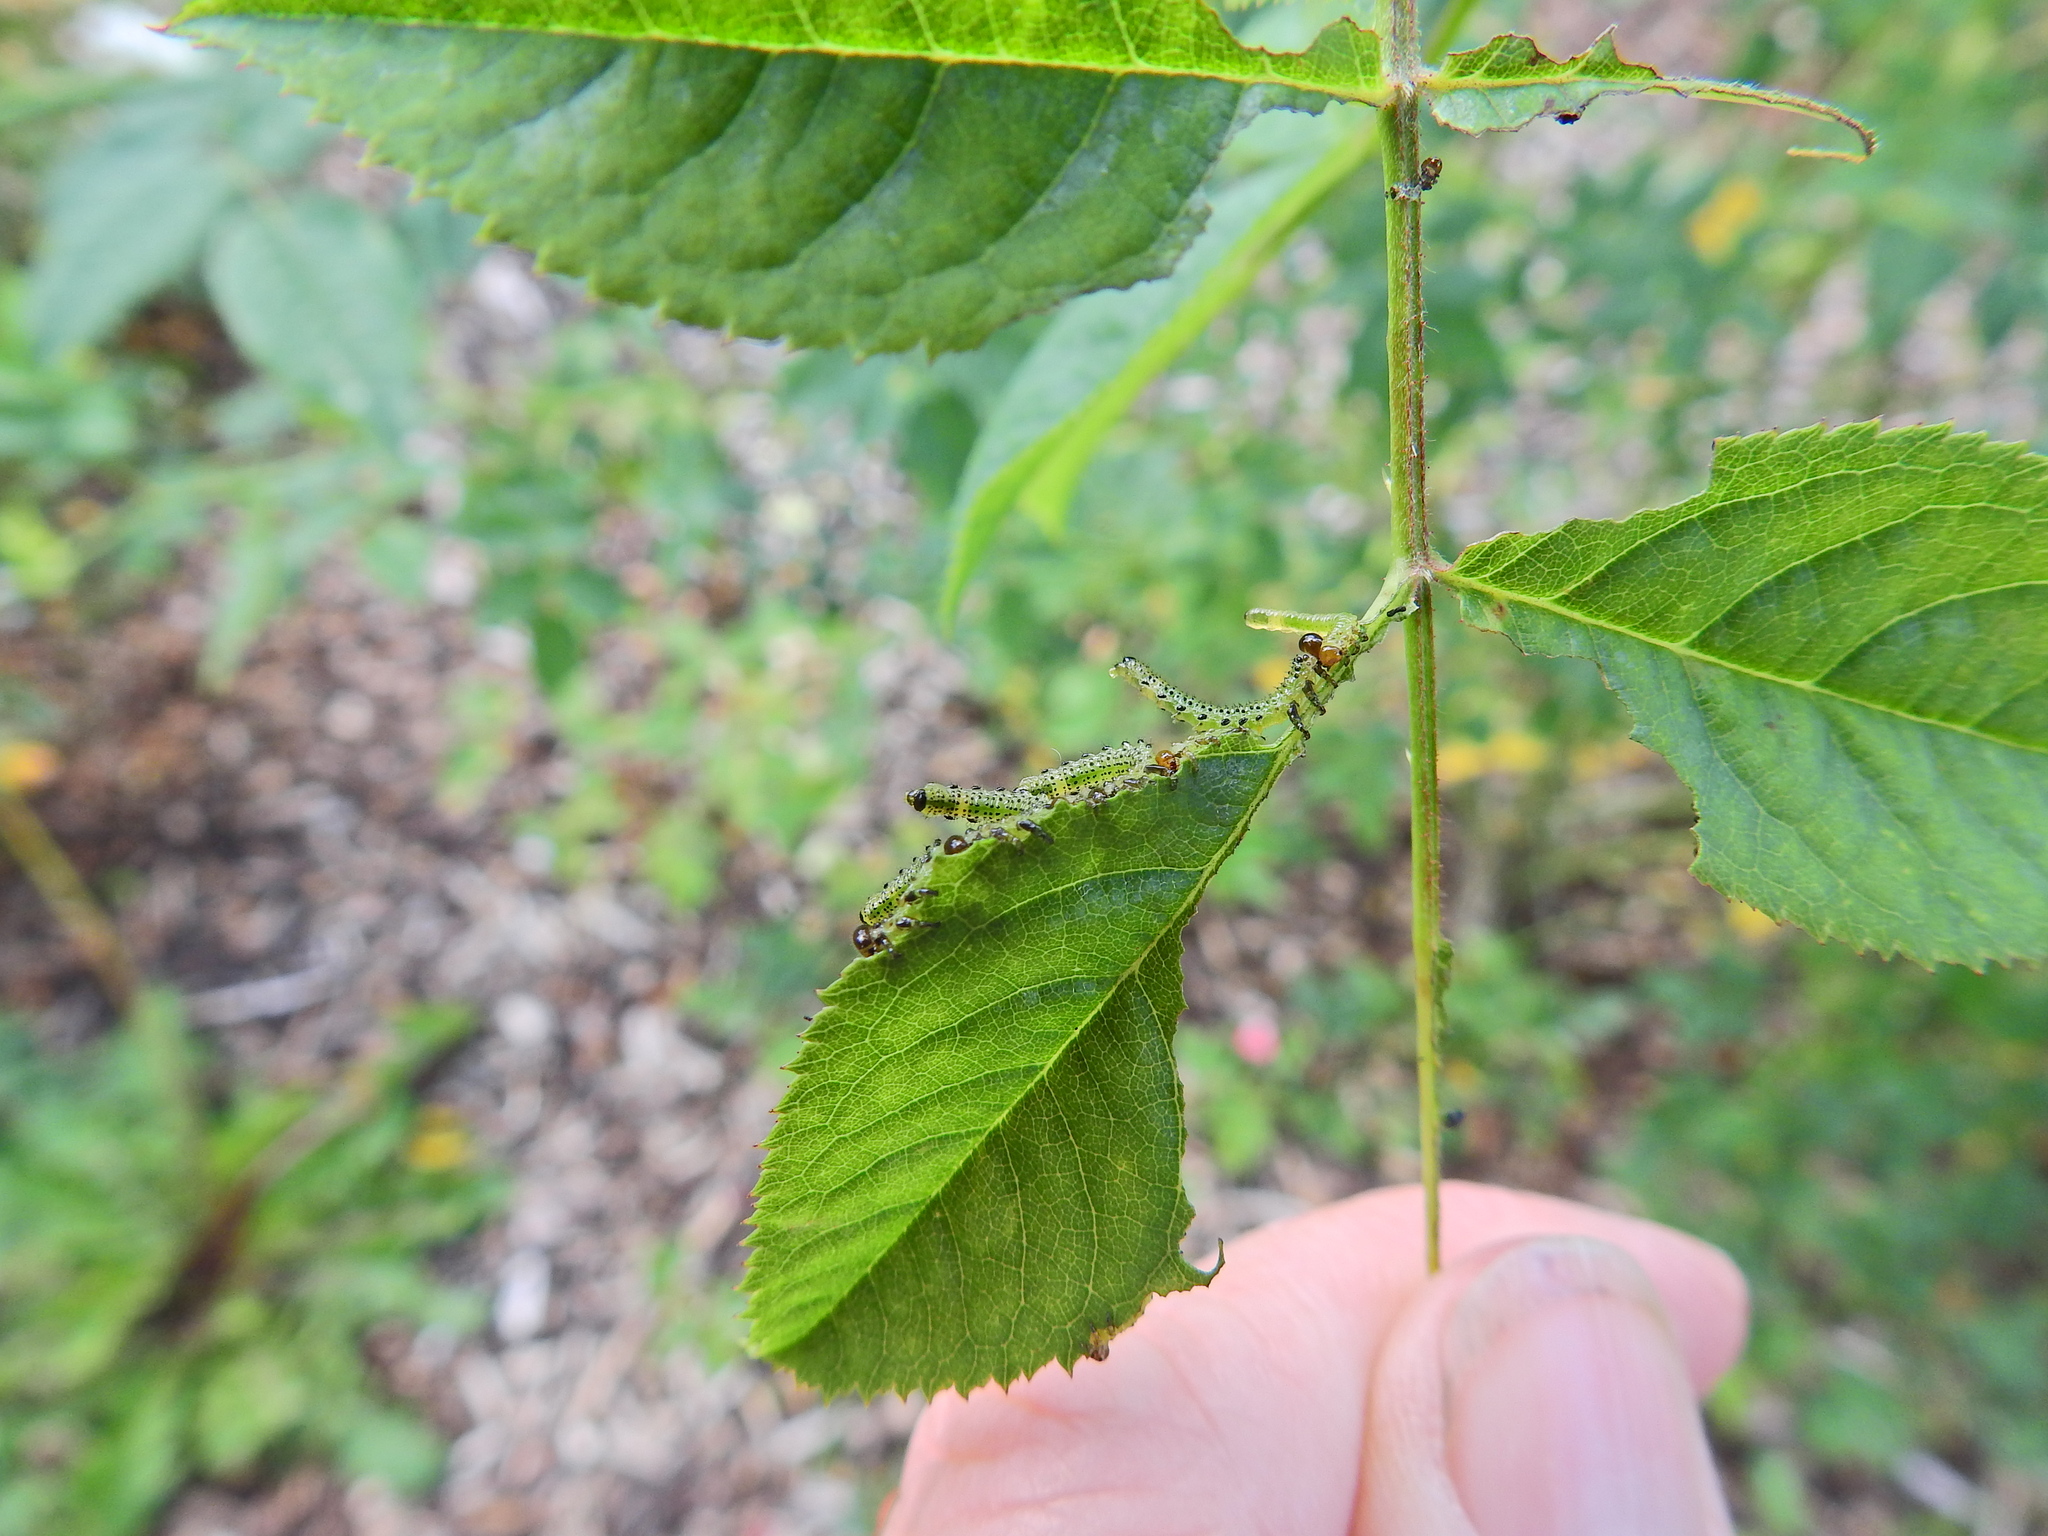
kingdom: Animalia
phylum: Arthropoda
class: Insecta
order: Hymenoptera
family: Argidae
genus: Arge
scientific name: Arge pagana
